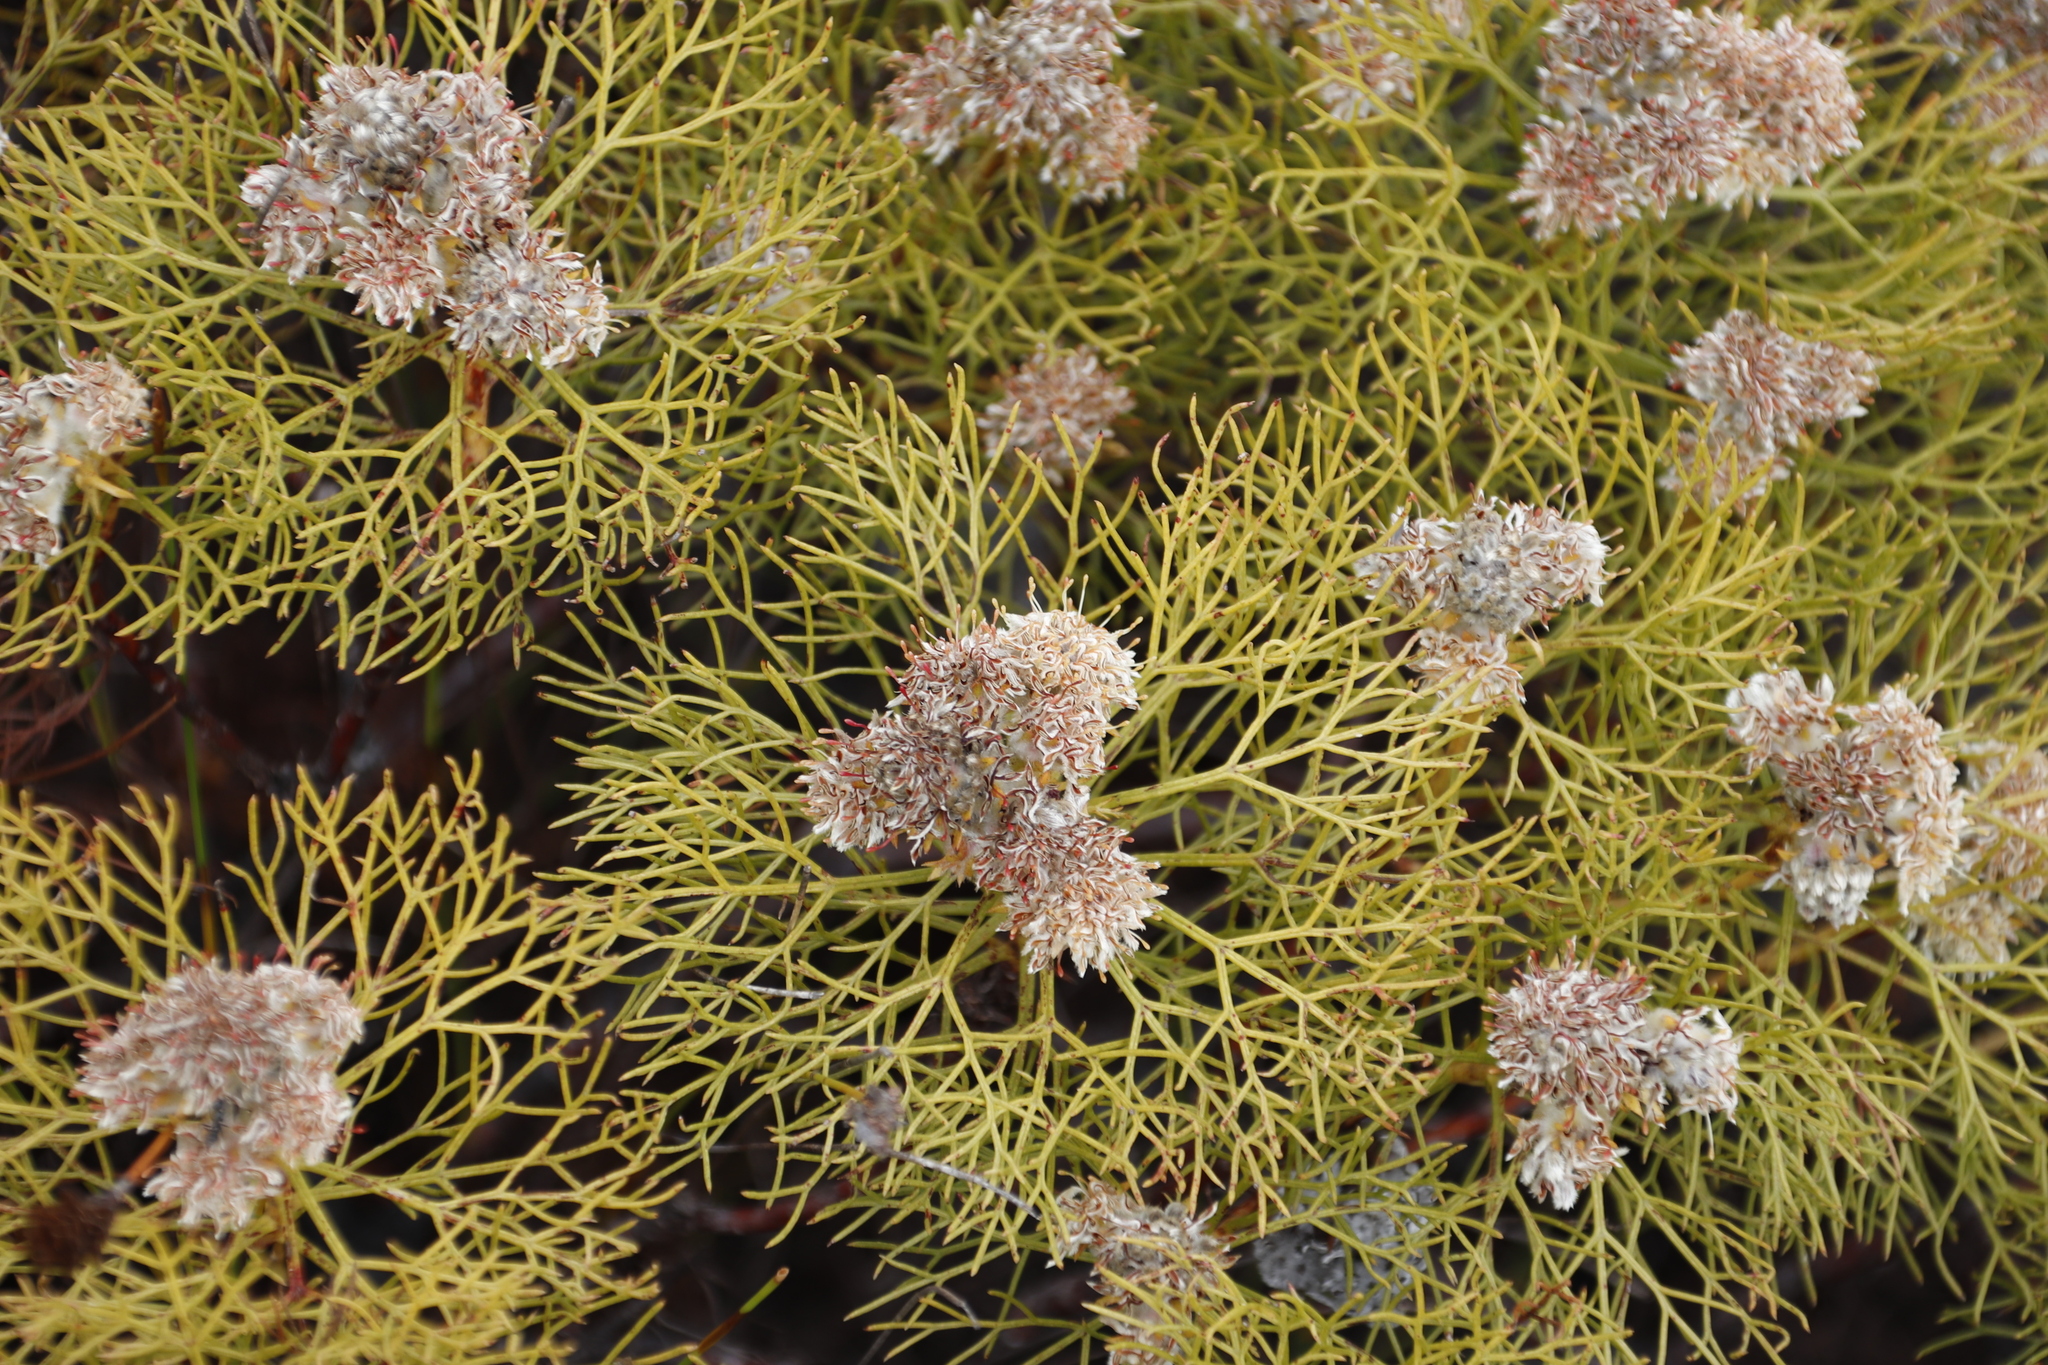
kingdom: Plantae
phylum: Tracheophyta
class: Magnoliopsida
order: Proteales
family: Proteaceae
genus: Serruria
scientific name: Serruria glomerata
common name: Cluster spiderhead
